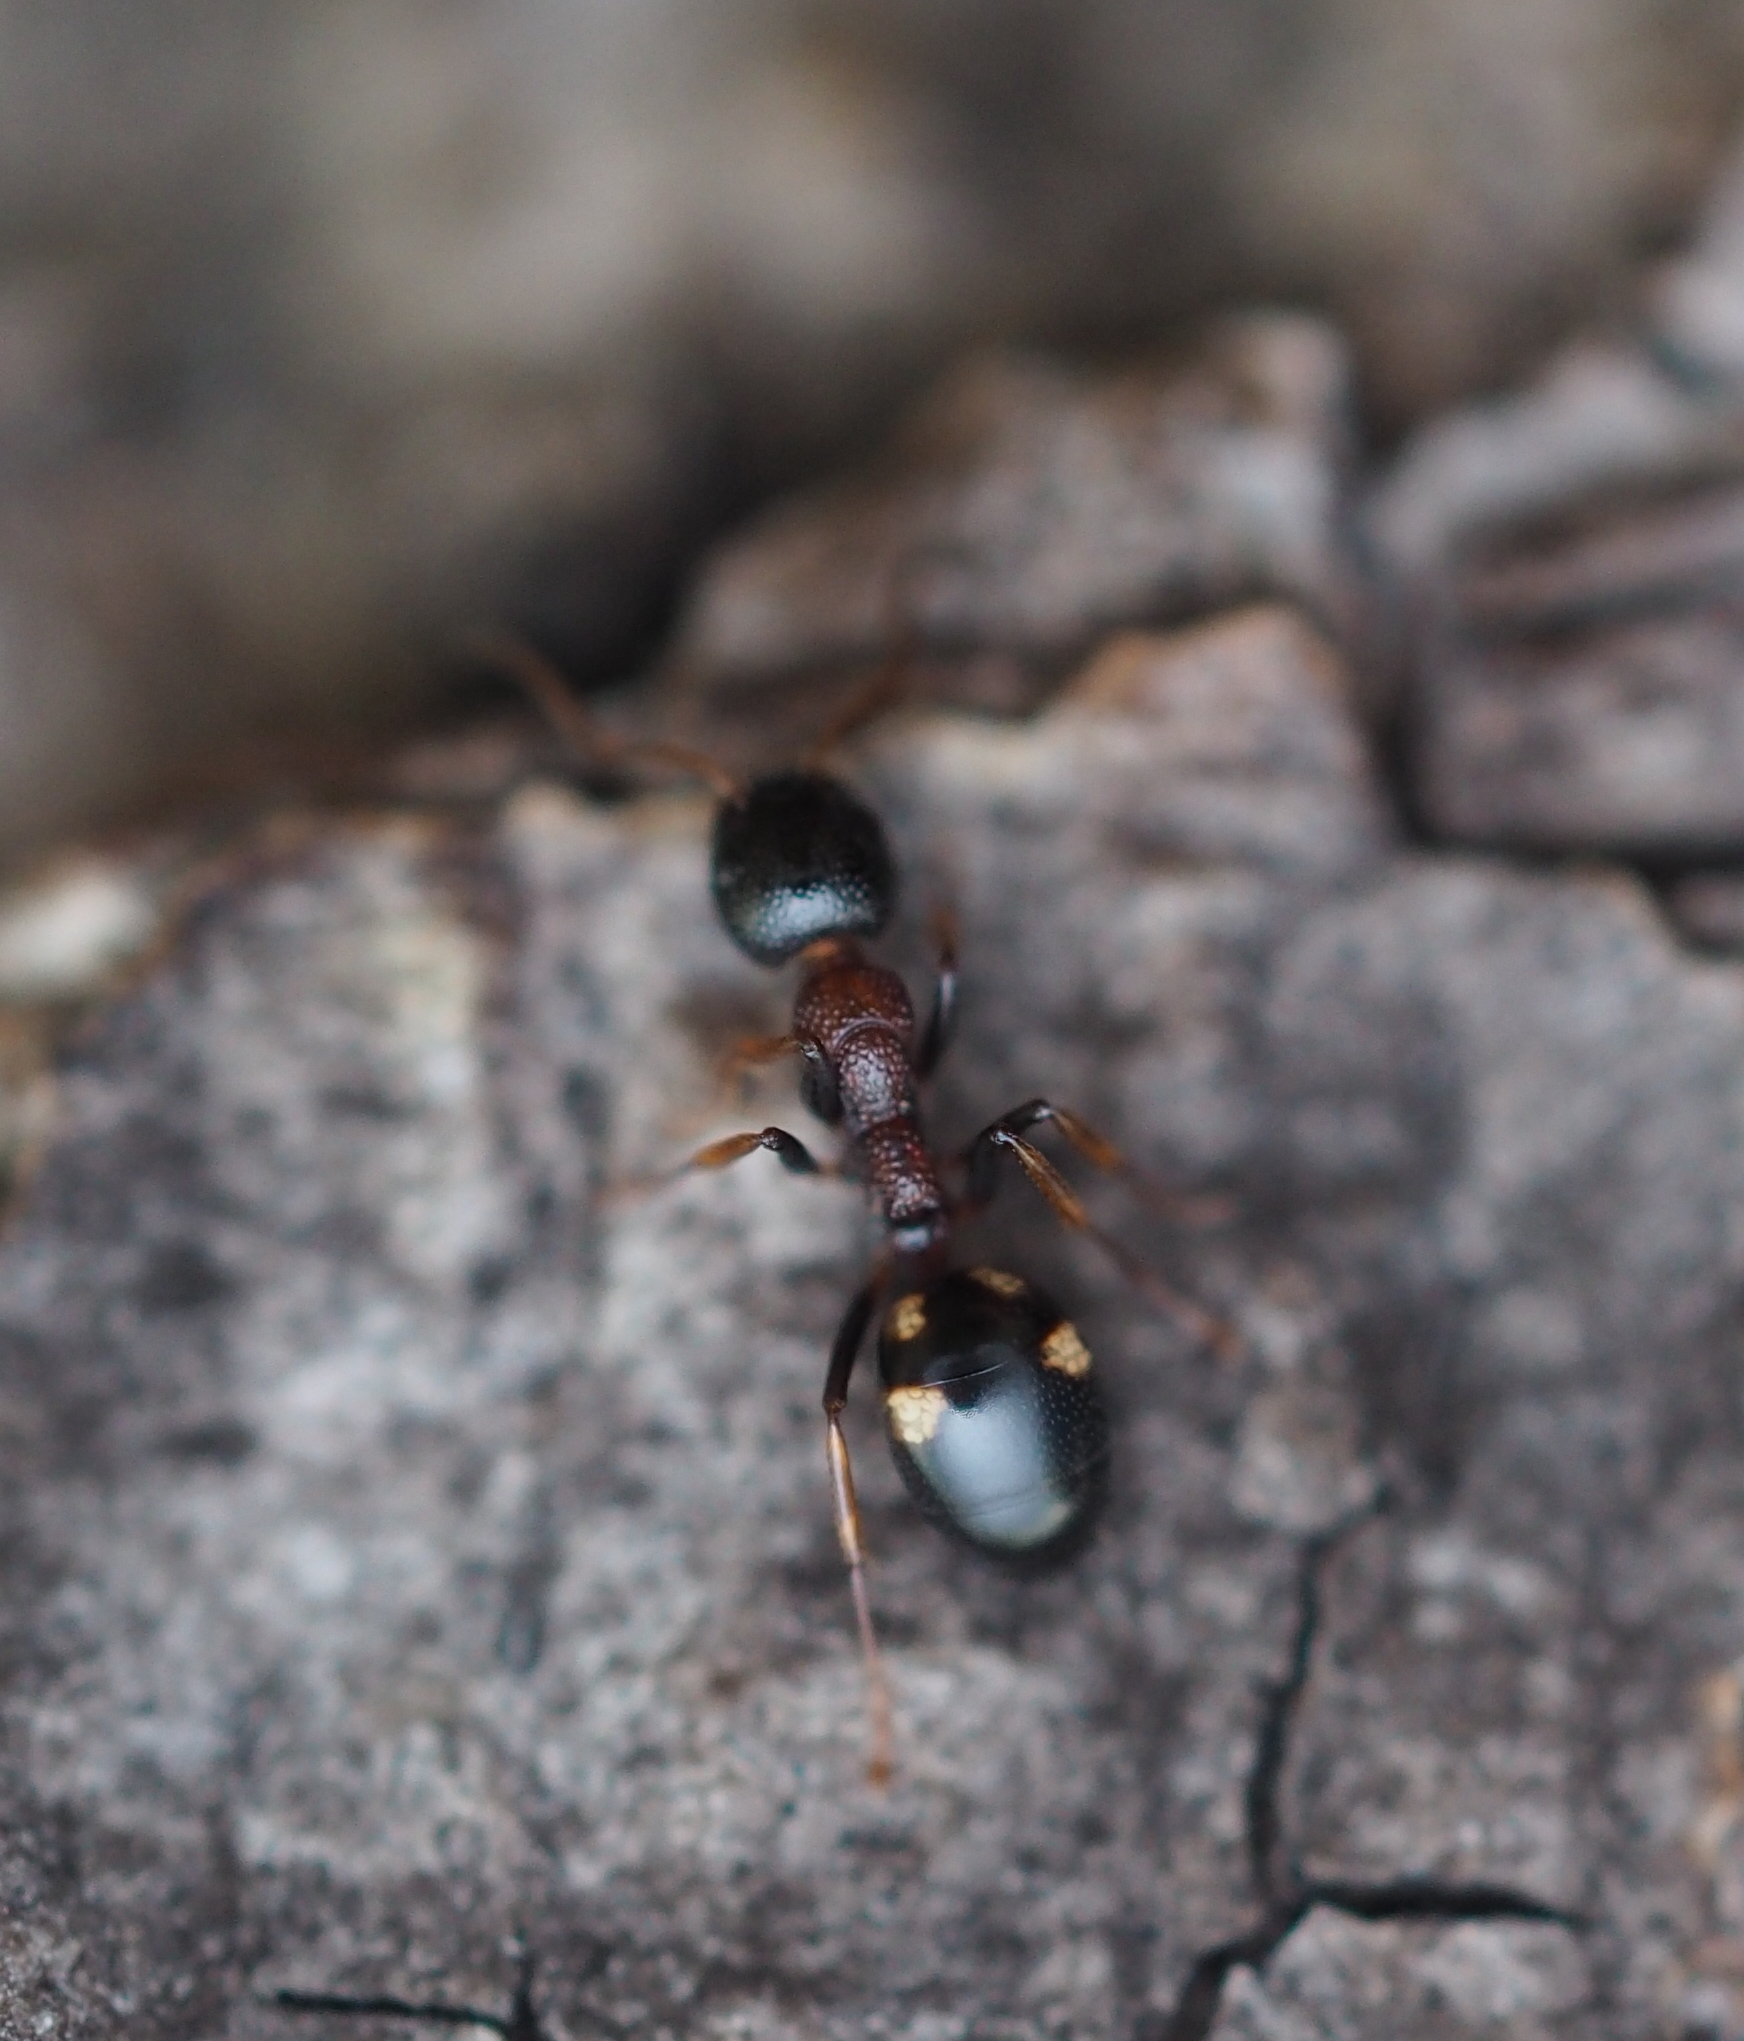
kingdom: Animalia
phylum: Arthropoda
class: Insecta
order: Hymenoptera
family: Formicidae
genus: Dolichoderus
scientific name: Dolichoderus quadripunctatus
